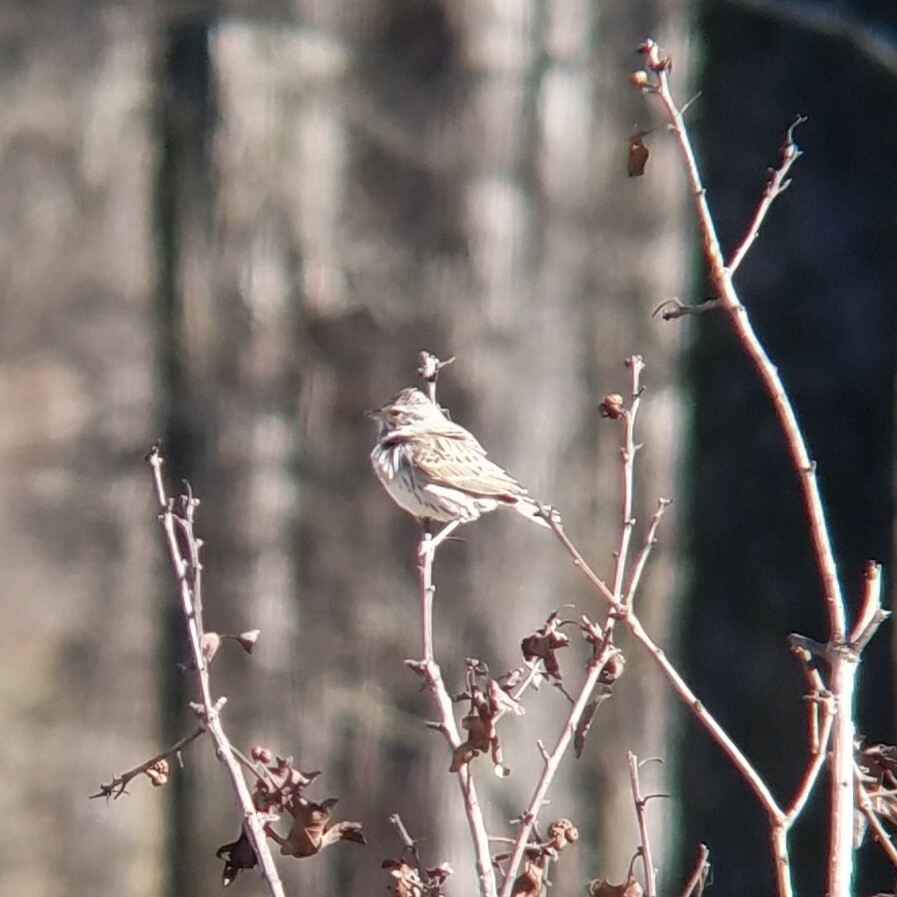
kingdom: Animalia
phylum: Chordata
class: Aves
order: Passeriformes
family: Passerellidae
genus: Passerculus
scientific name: Passerculus sandwichensis
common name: Savannah sparrow
